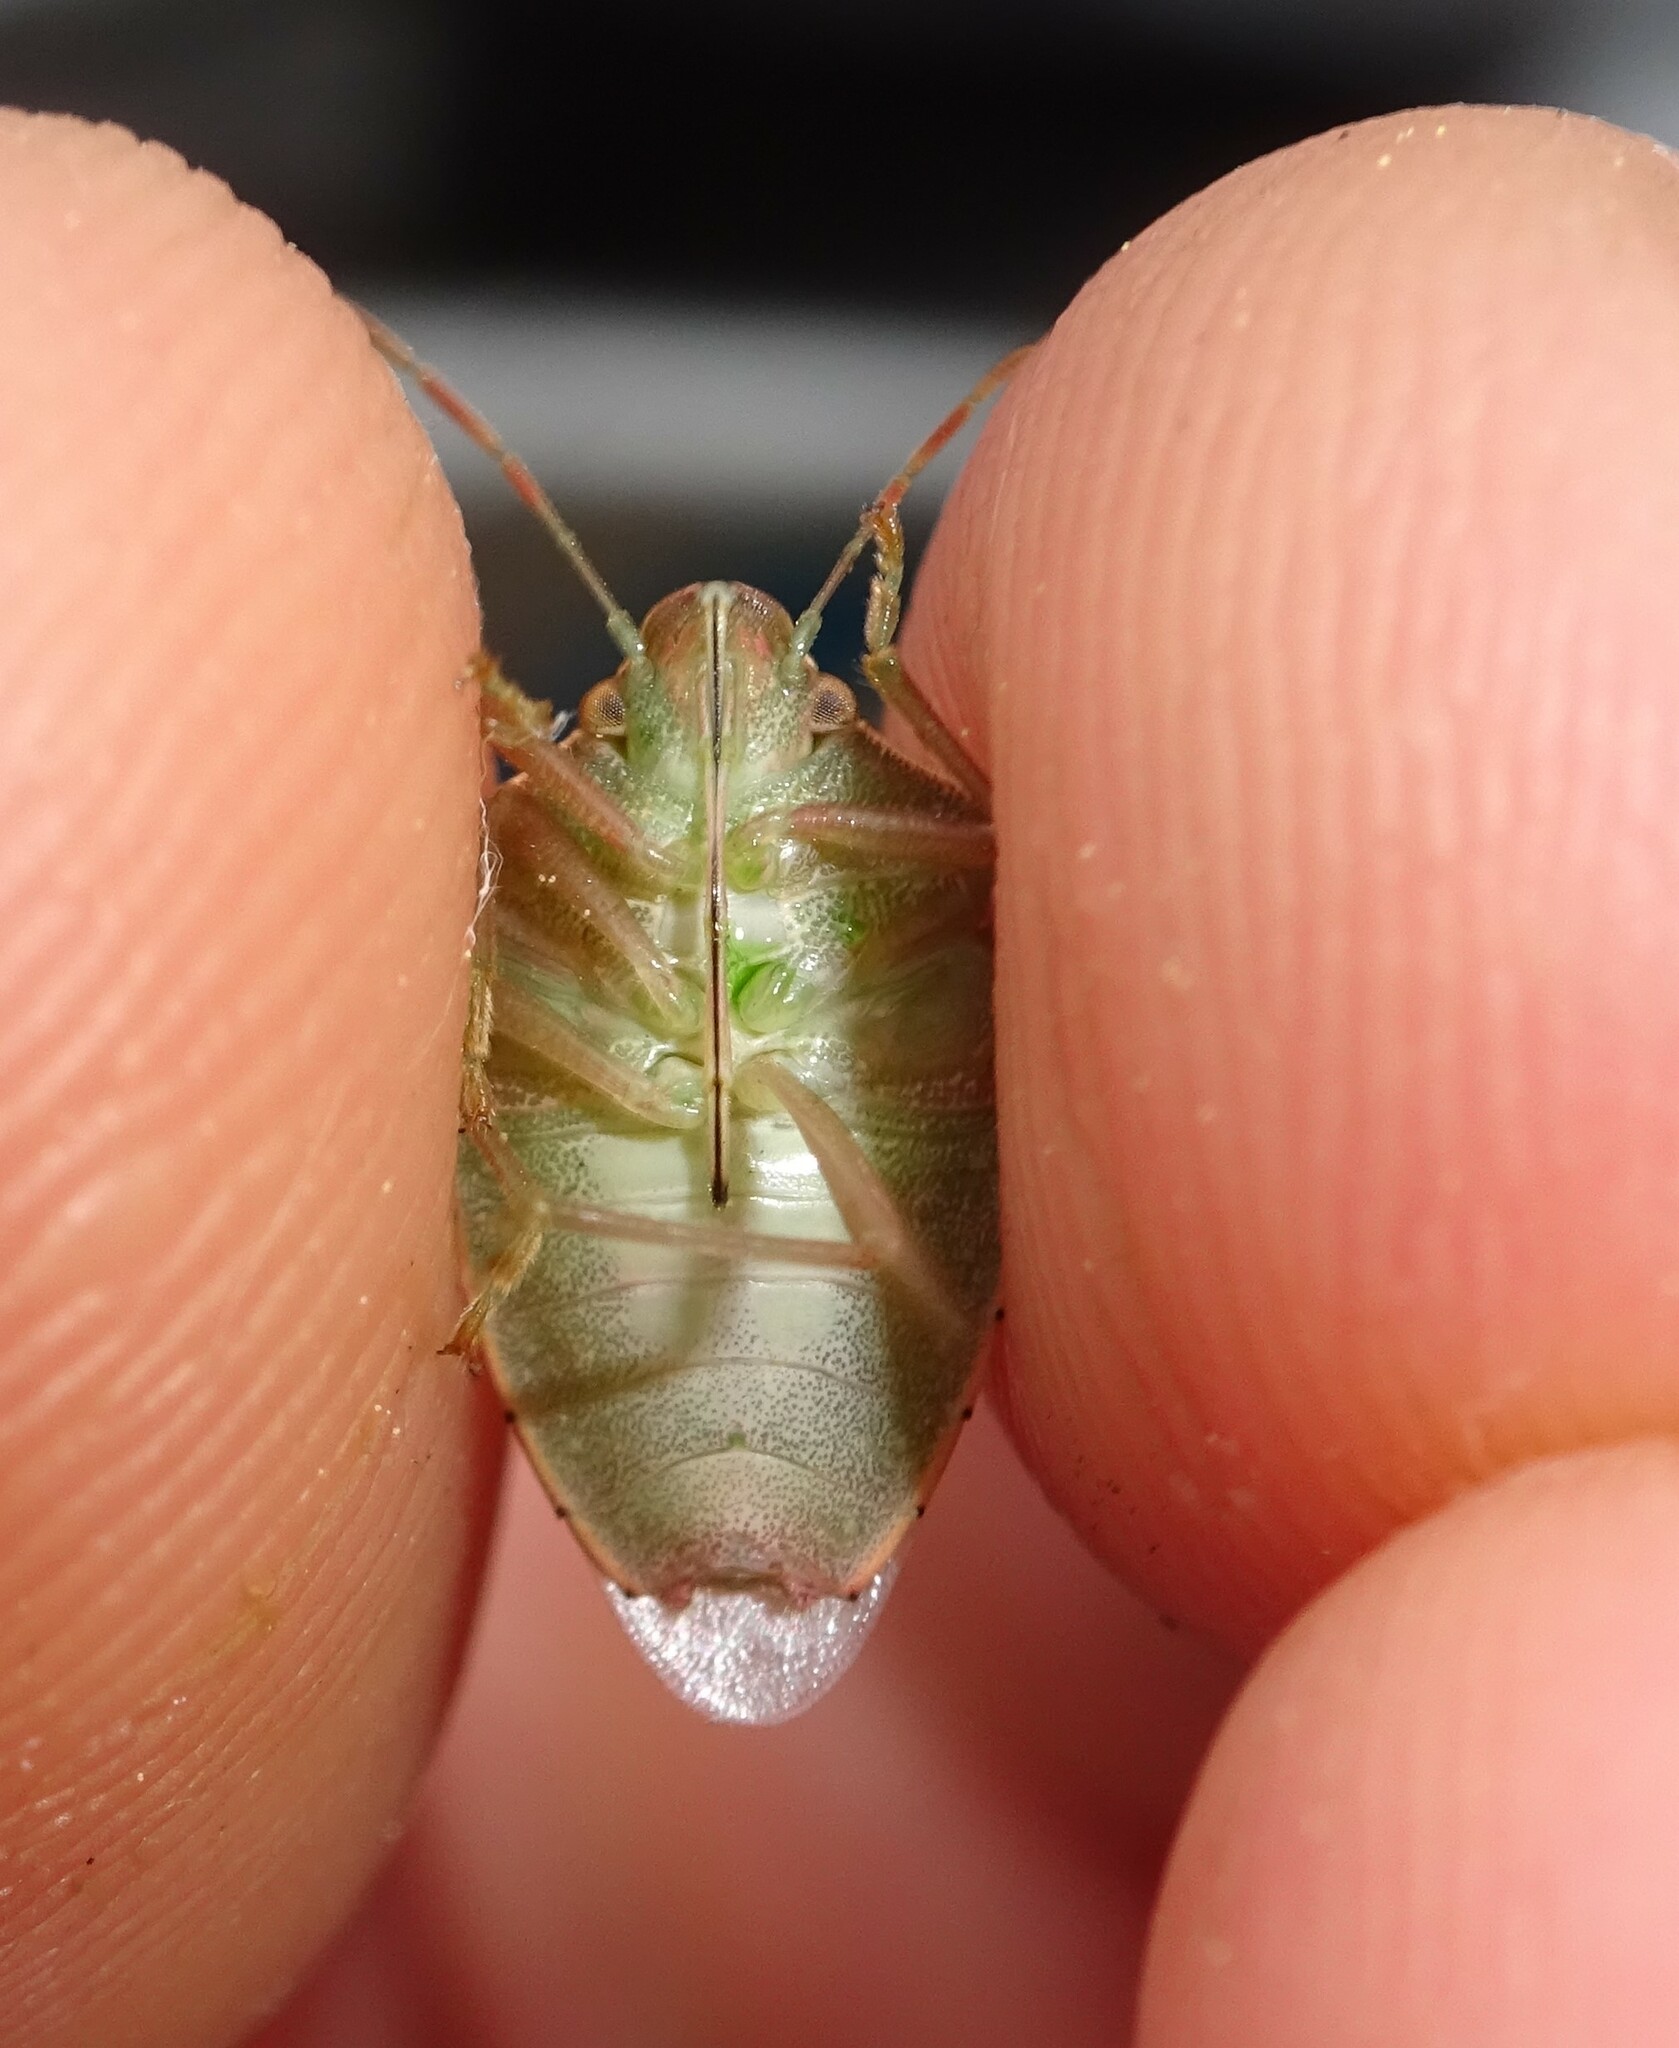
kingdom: Animalia
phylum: Arthropoda
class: Insecta
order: Hemiptera
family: Pentatomidae
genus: Acrosternum
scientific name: Acrosternum heegeri
